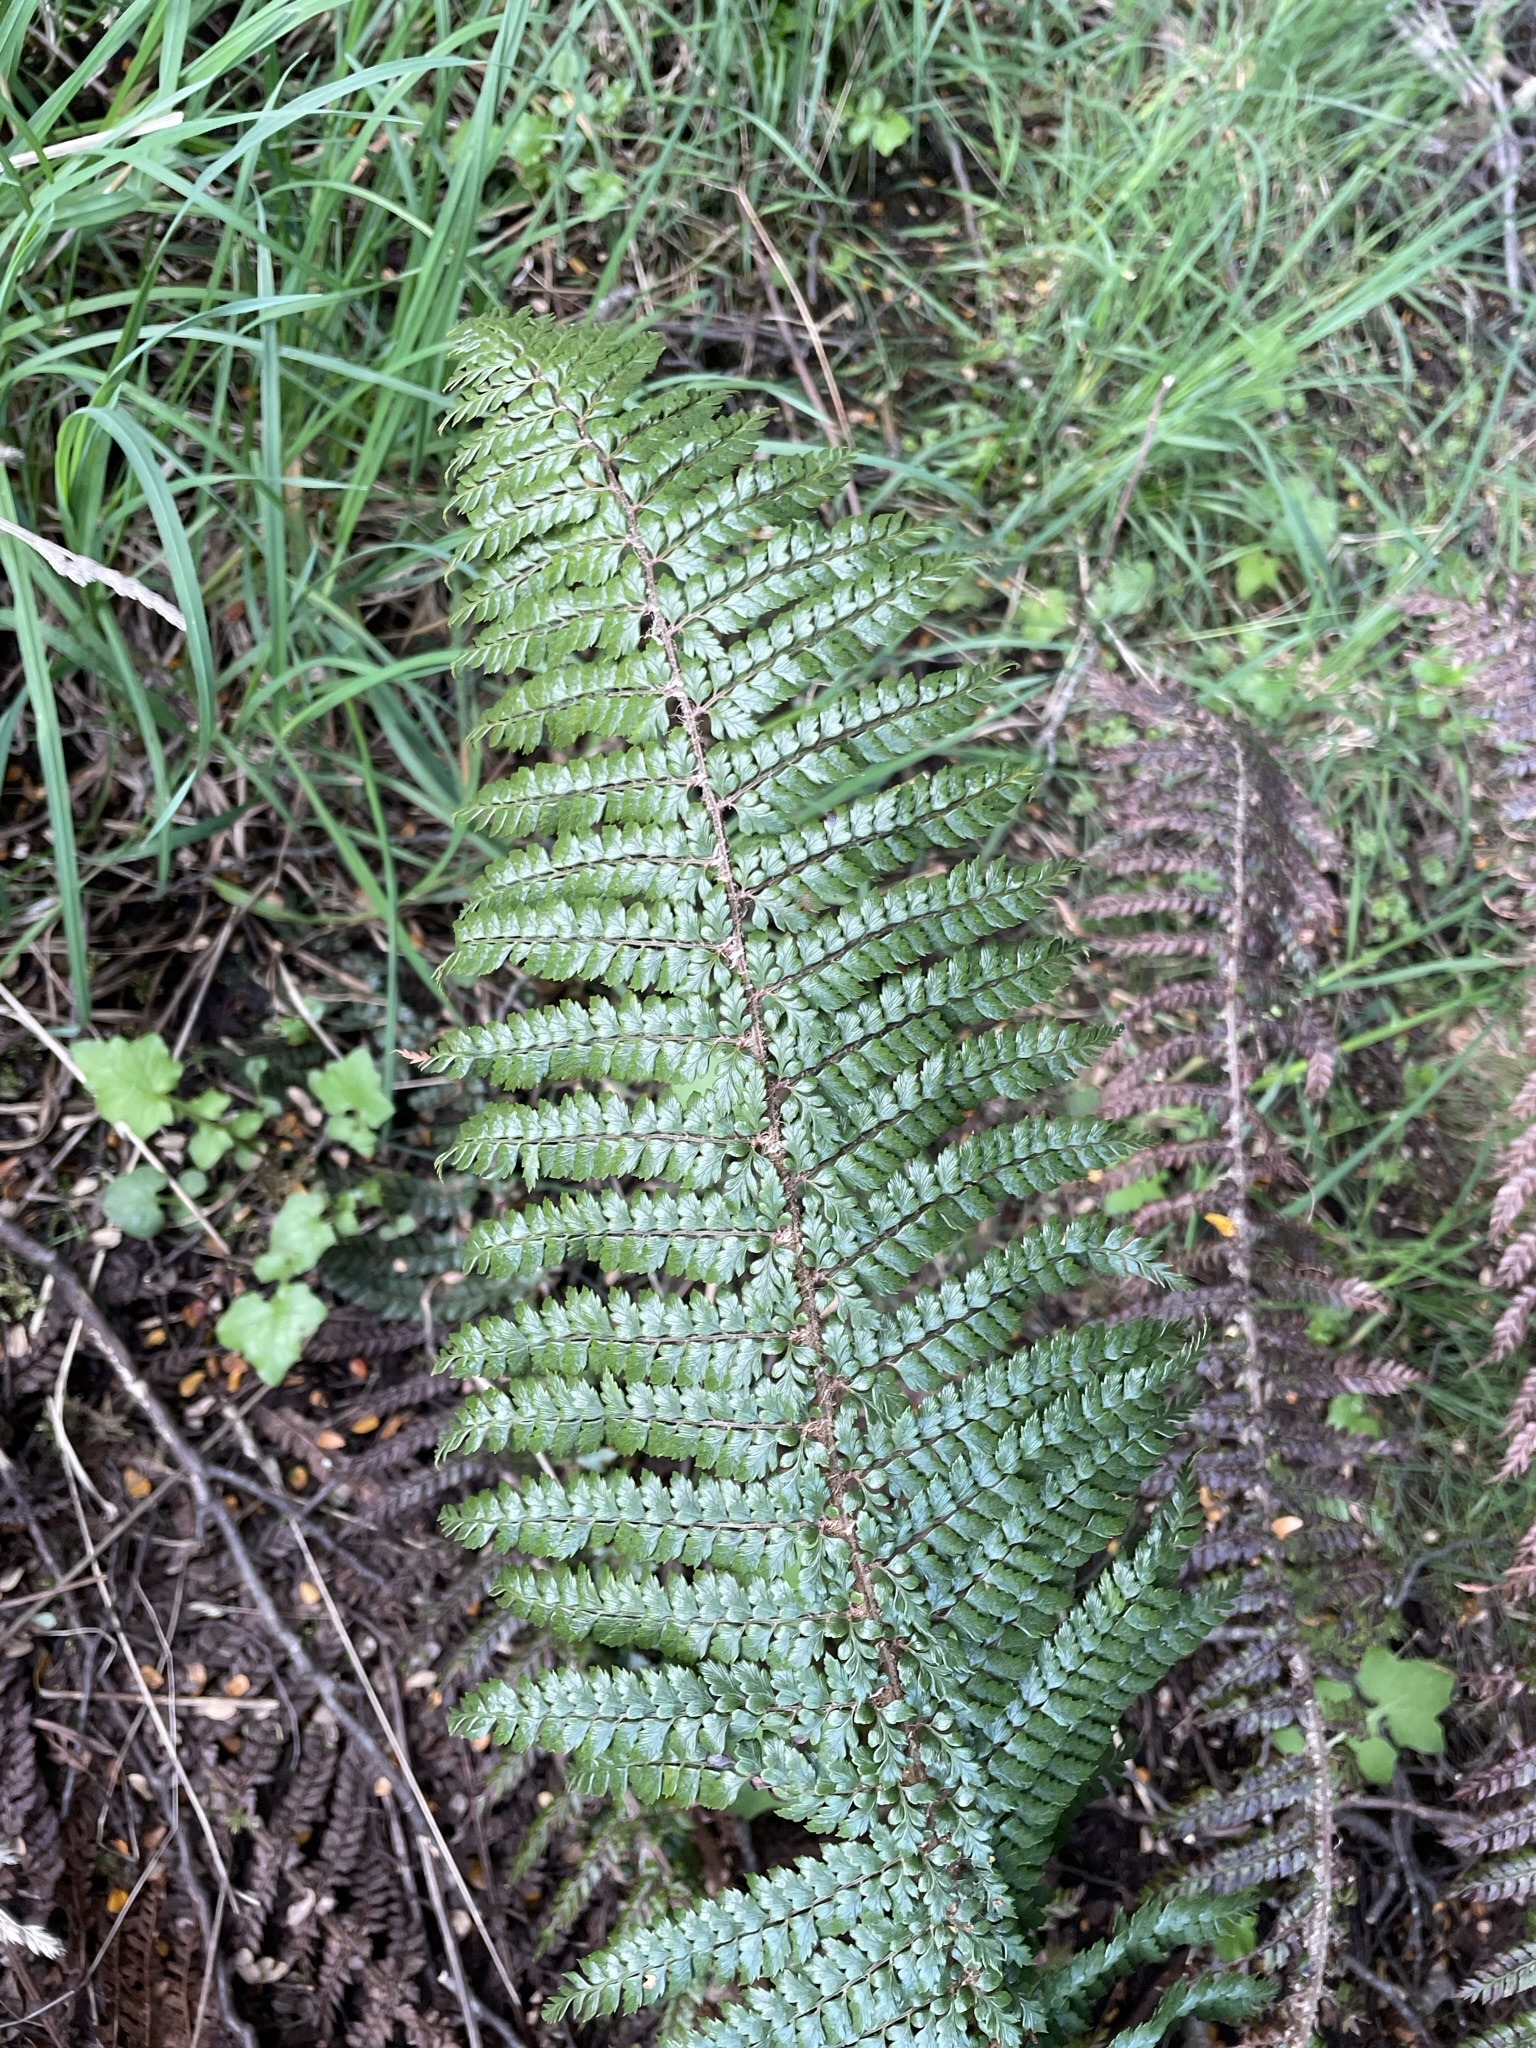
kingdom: Plantae
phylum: Tracheophyta
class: Polypodiopsida
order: Polypodiales
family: Dryopteridaceae
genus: Polystichum
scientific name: Polystichum vestitum
